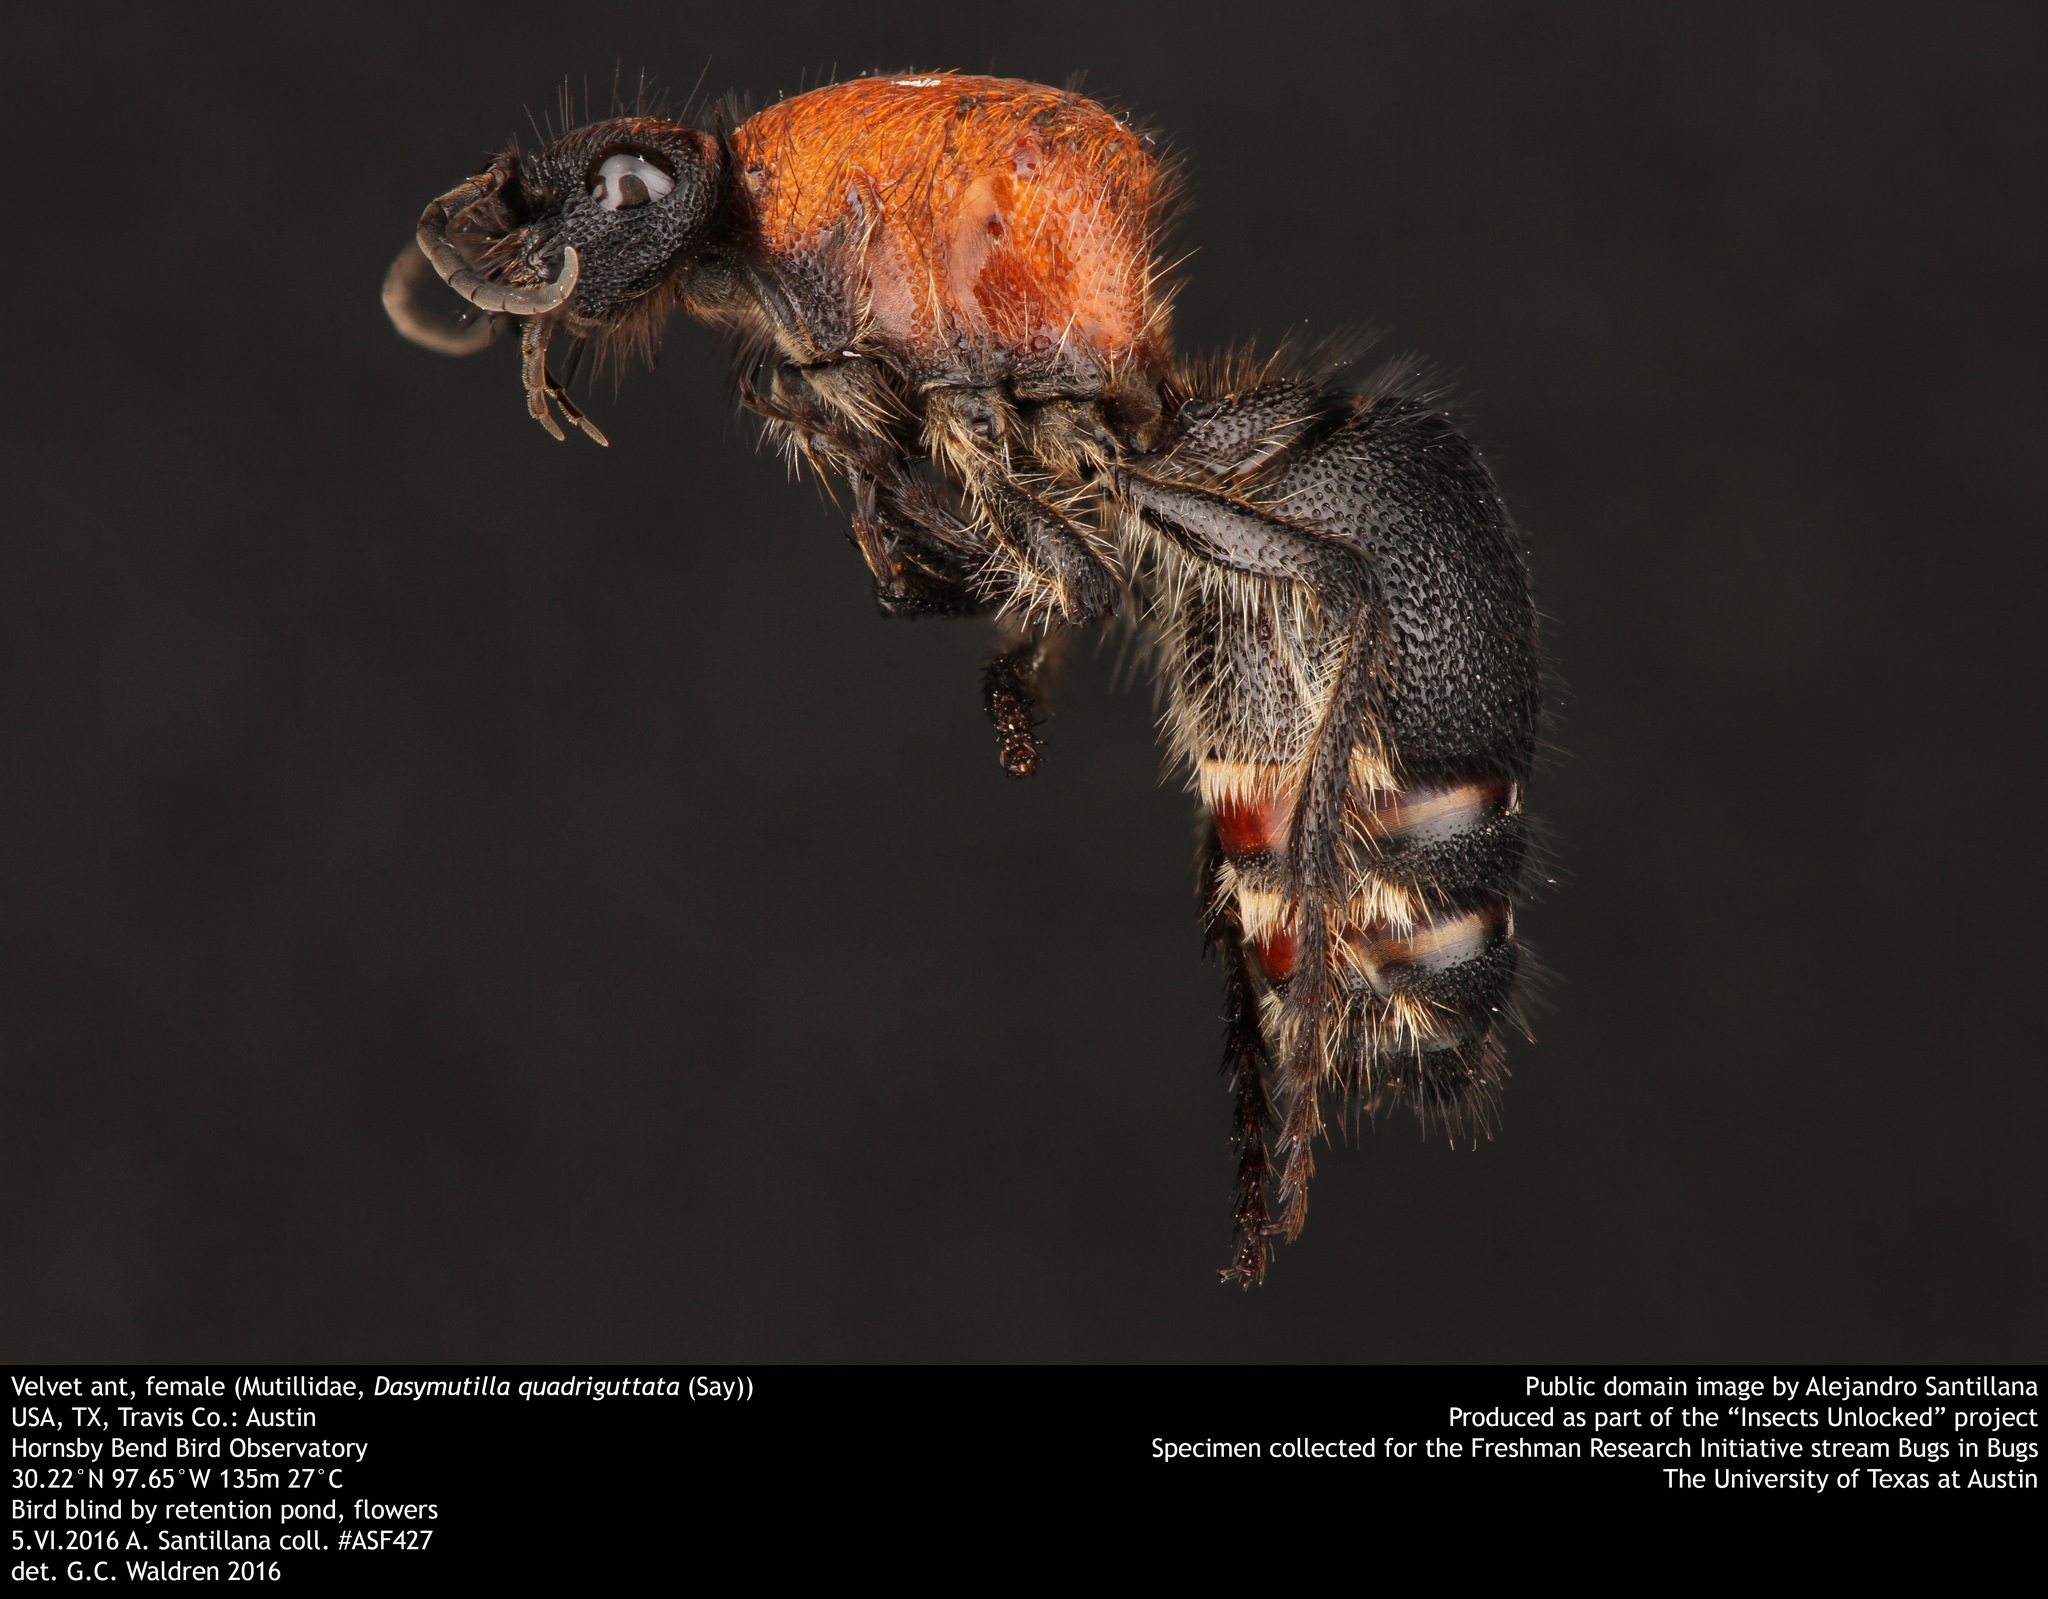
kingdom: Animalia
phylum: Arthropoda
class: Insecta
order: Hymenoptera
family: Mutillidae
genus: Dasymutilla
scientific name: Dasymutilla
